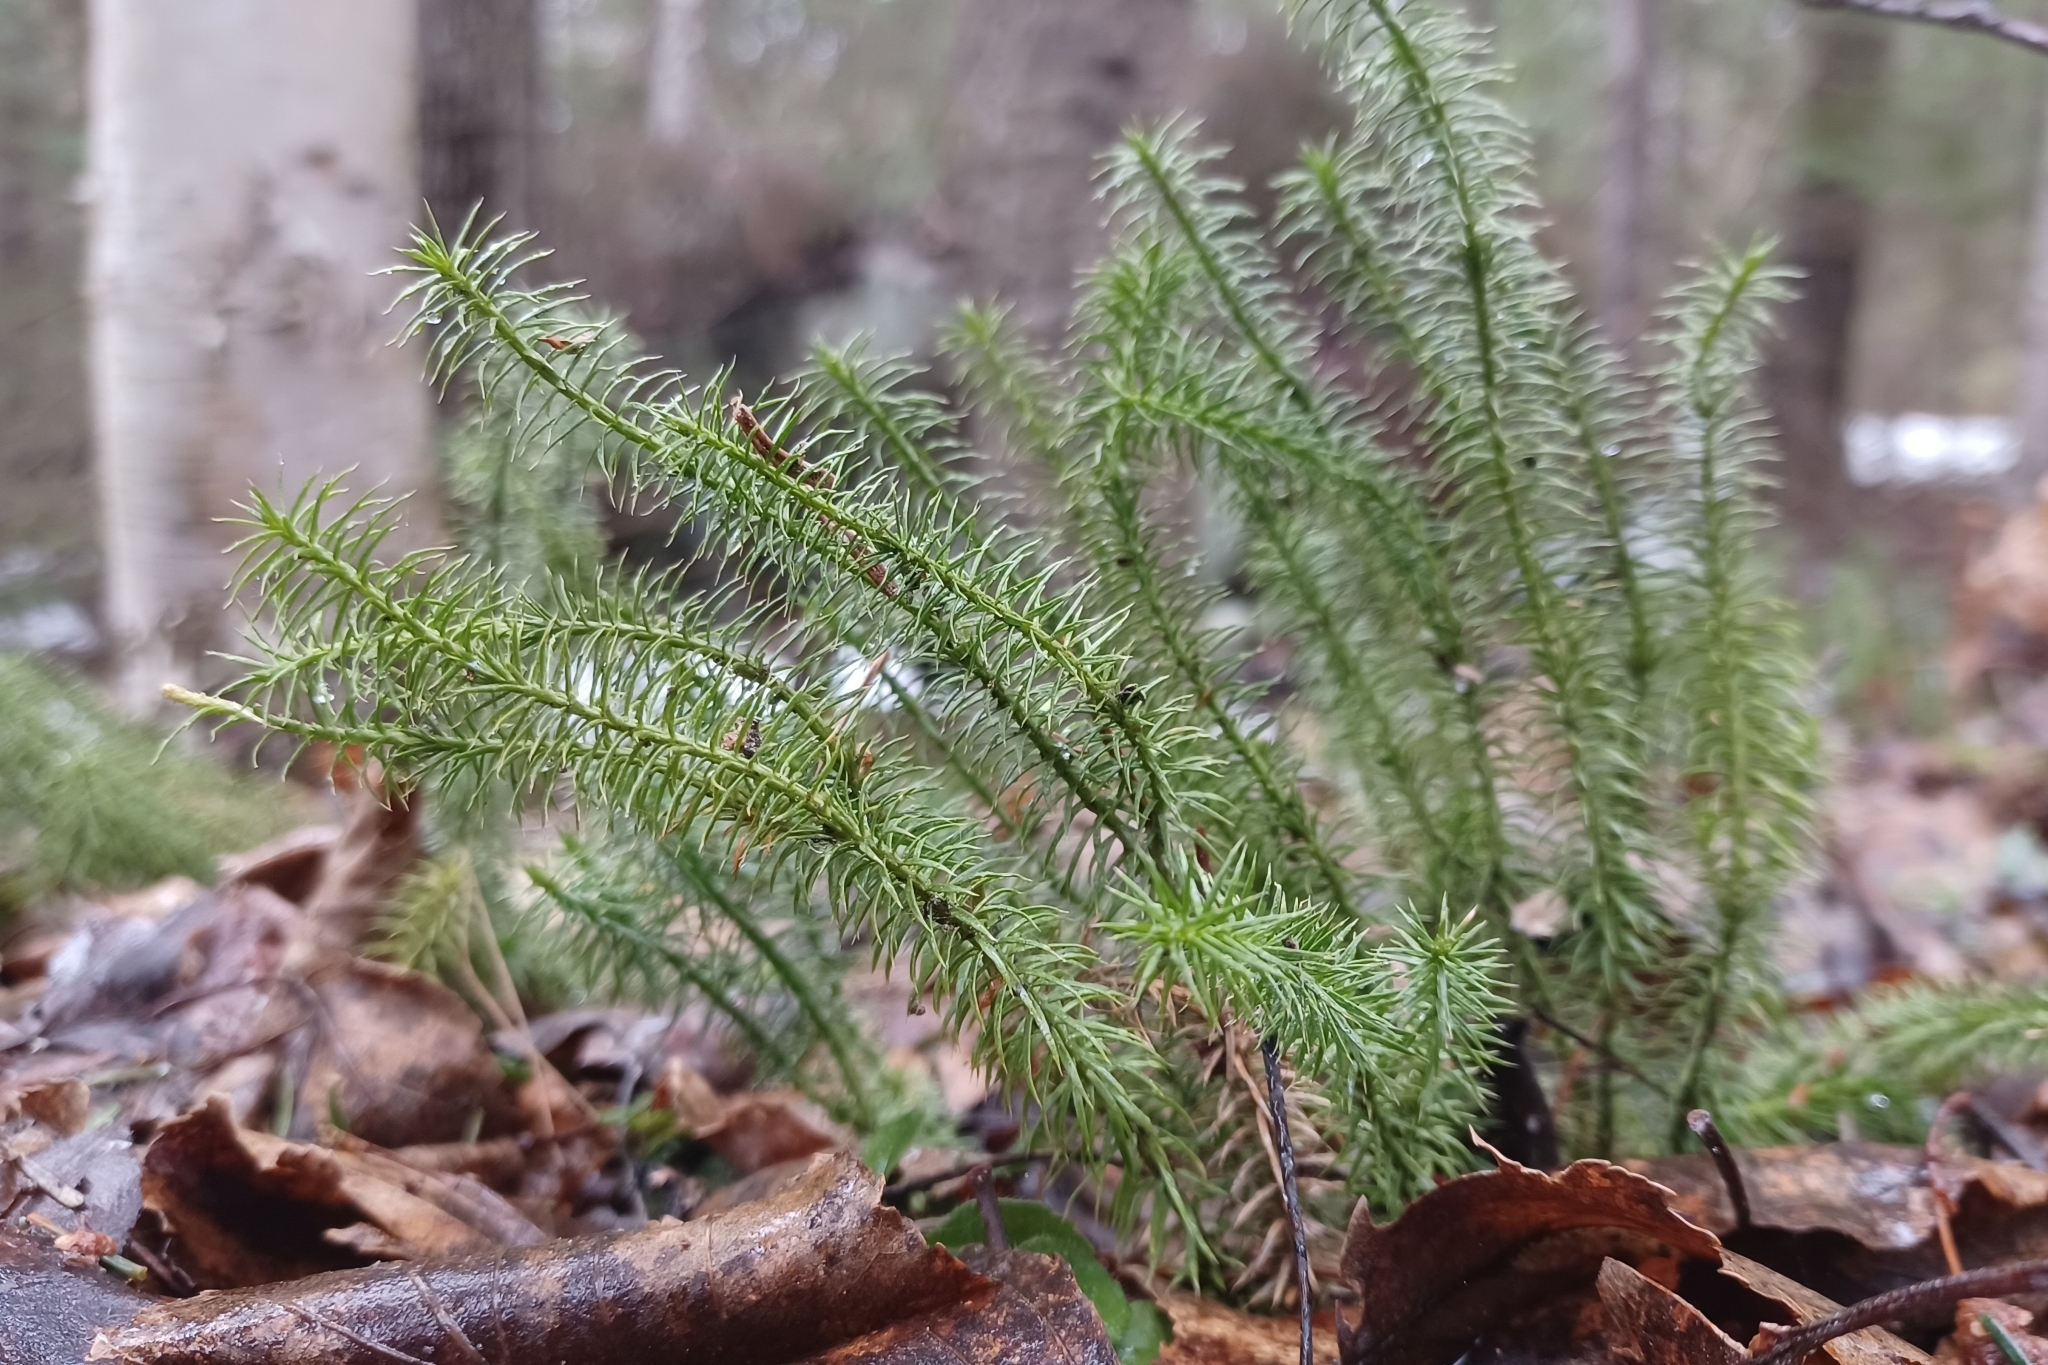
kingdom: Plantae
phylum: Tracheophyta
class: Lycopodiopsida
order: Lycopodiales
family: Lycopodiaceae
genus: Spinulum
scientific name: Spinulum annotinum
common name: Interrupted club-moss
